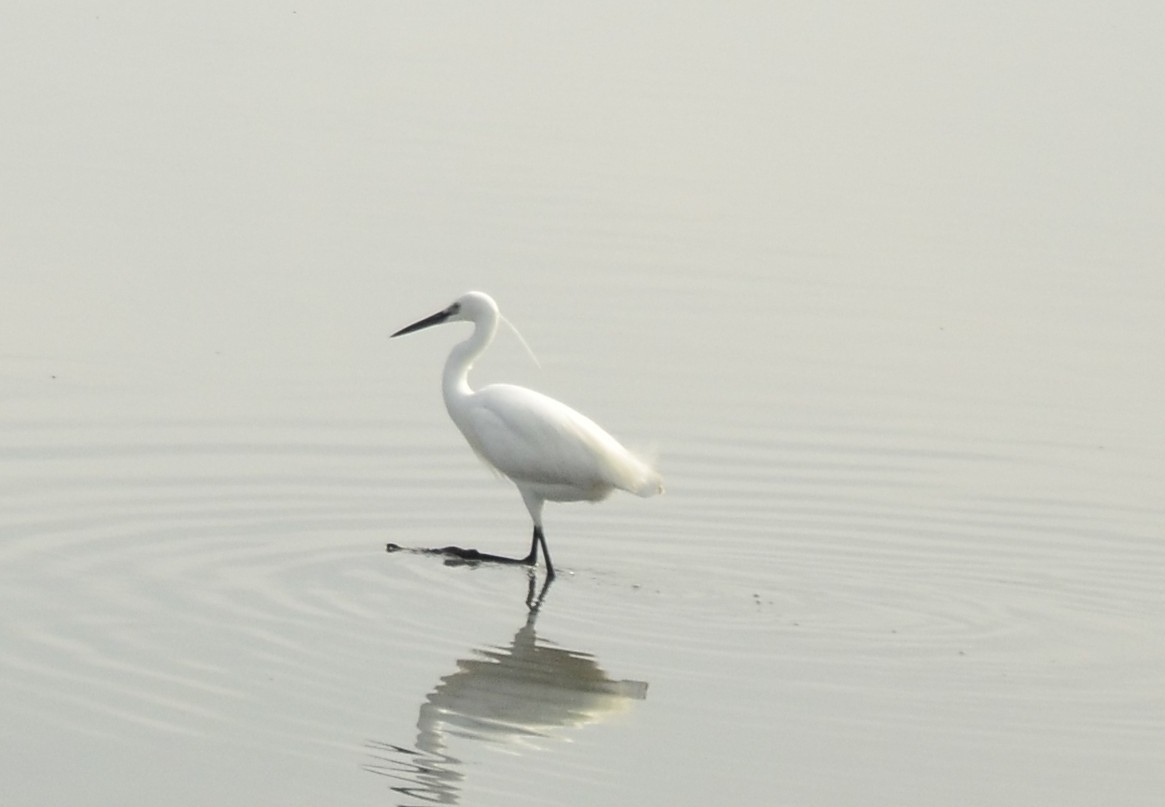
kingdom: Animalia
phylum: Chordata
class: Aves
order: Pelecaniformes
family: Ardeidae
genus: Egretta
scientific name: Egretta garzetta
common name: Little egret
